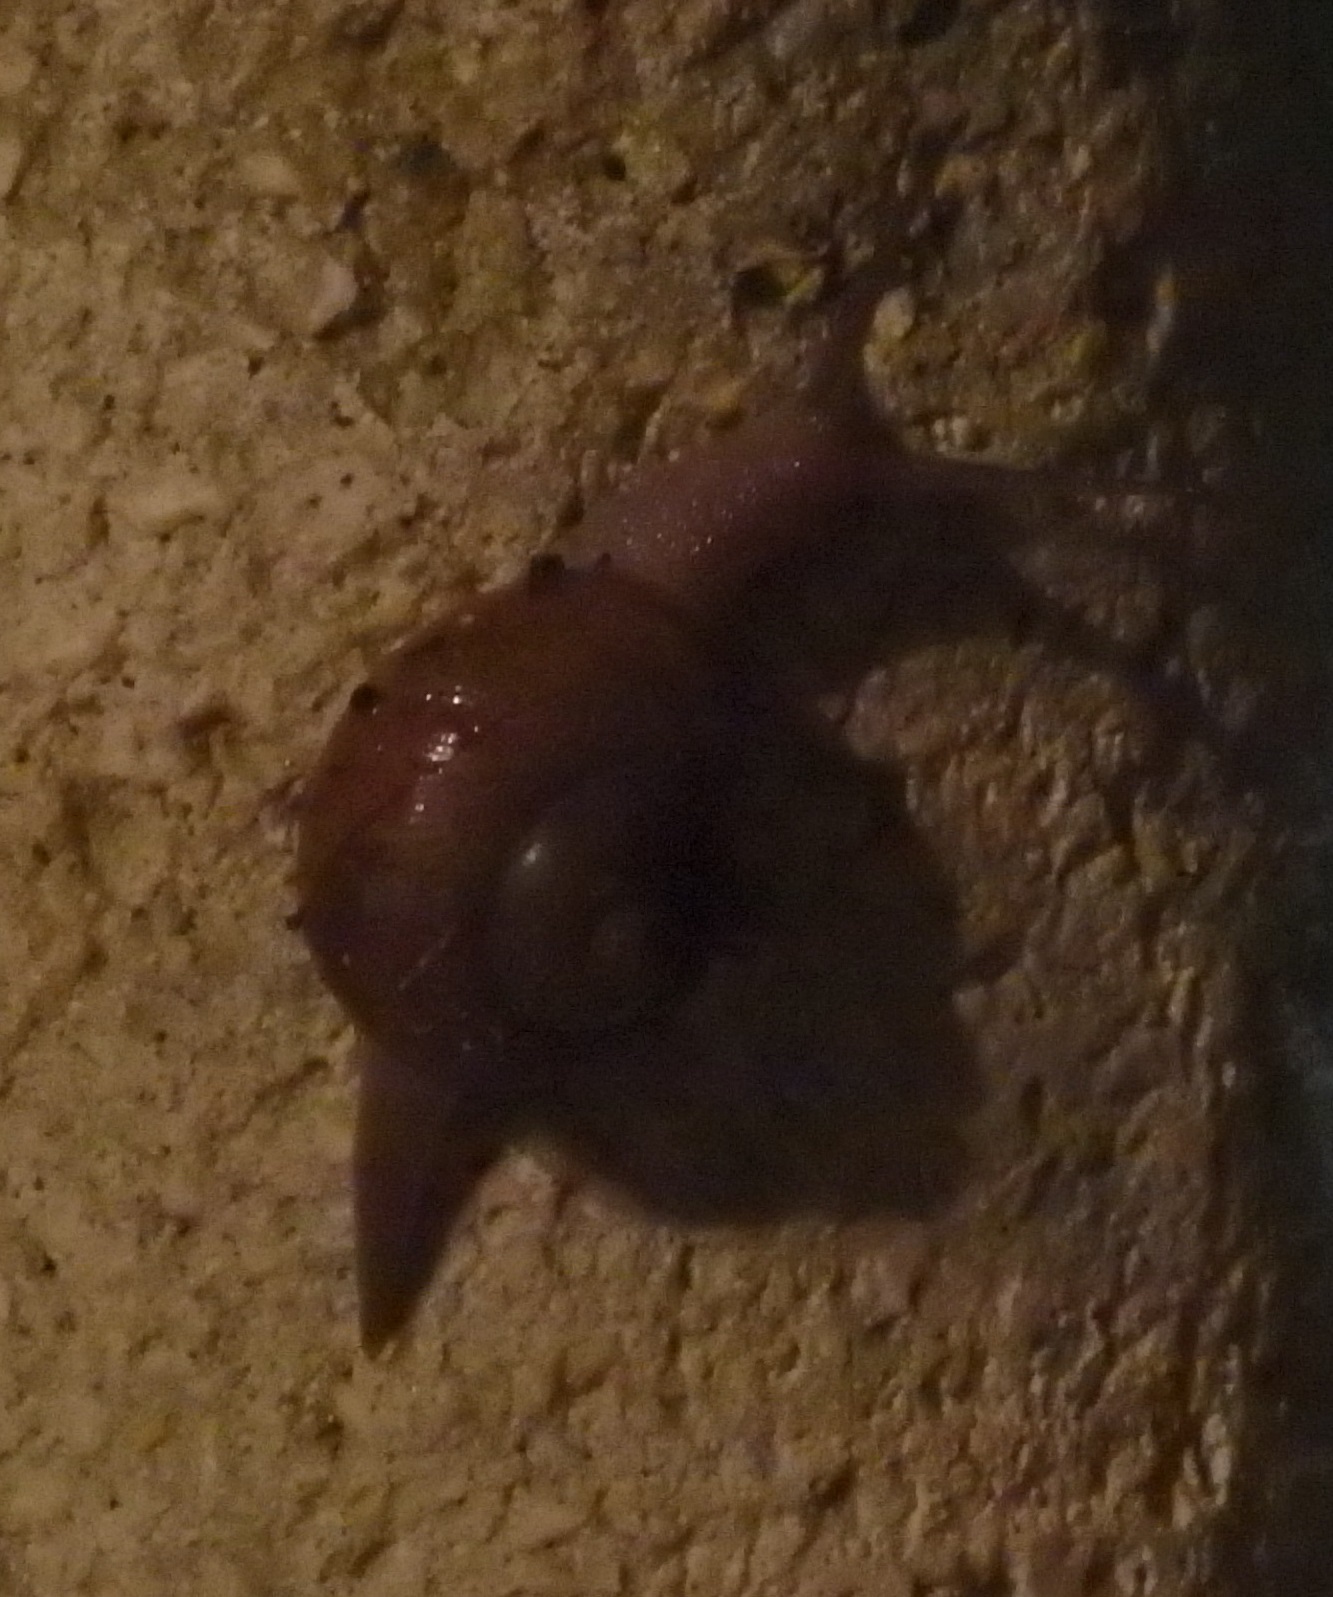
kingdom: Animalia
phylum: Mollusca
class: Gastropoda
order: Stylommatophora
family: Zachrysiidae
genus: Zachrysia
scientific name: Zachrysia provisoria
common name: Garden zachrysia
